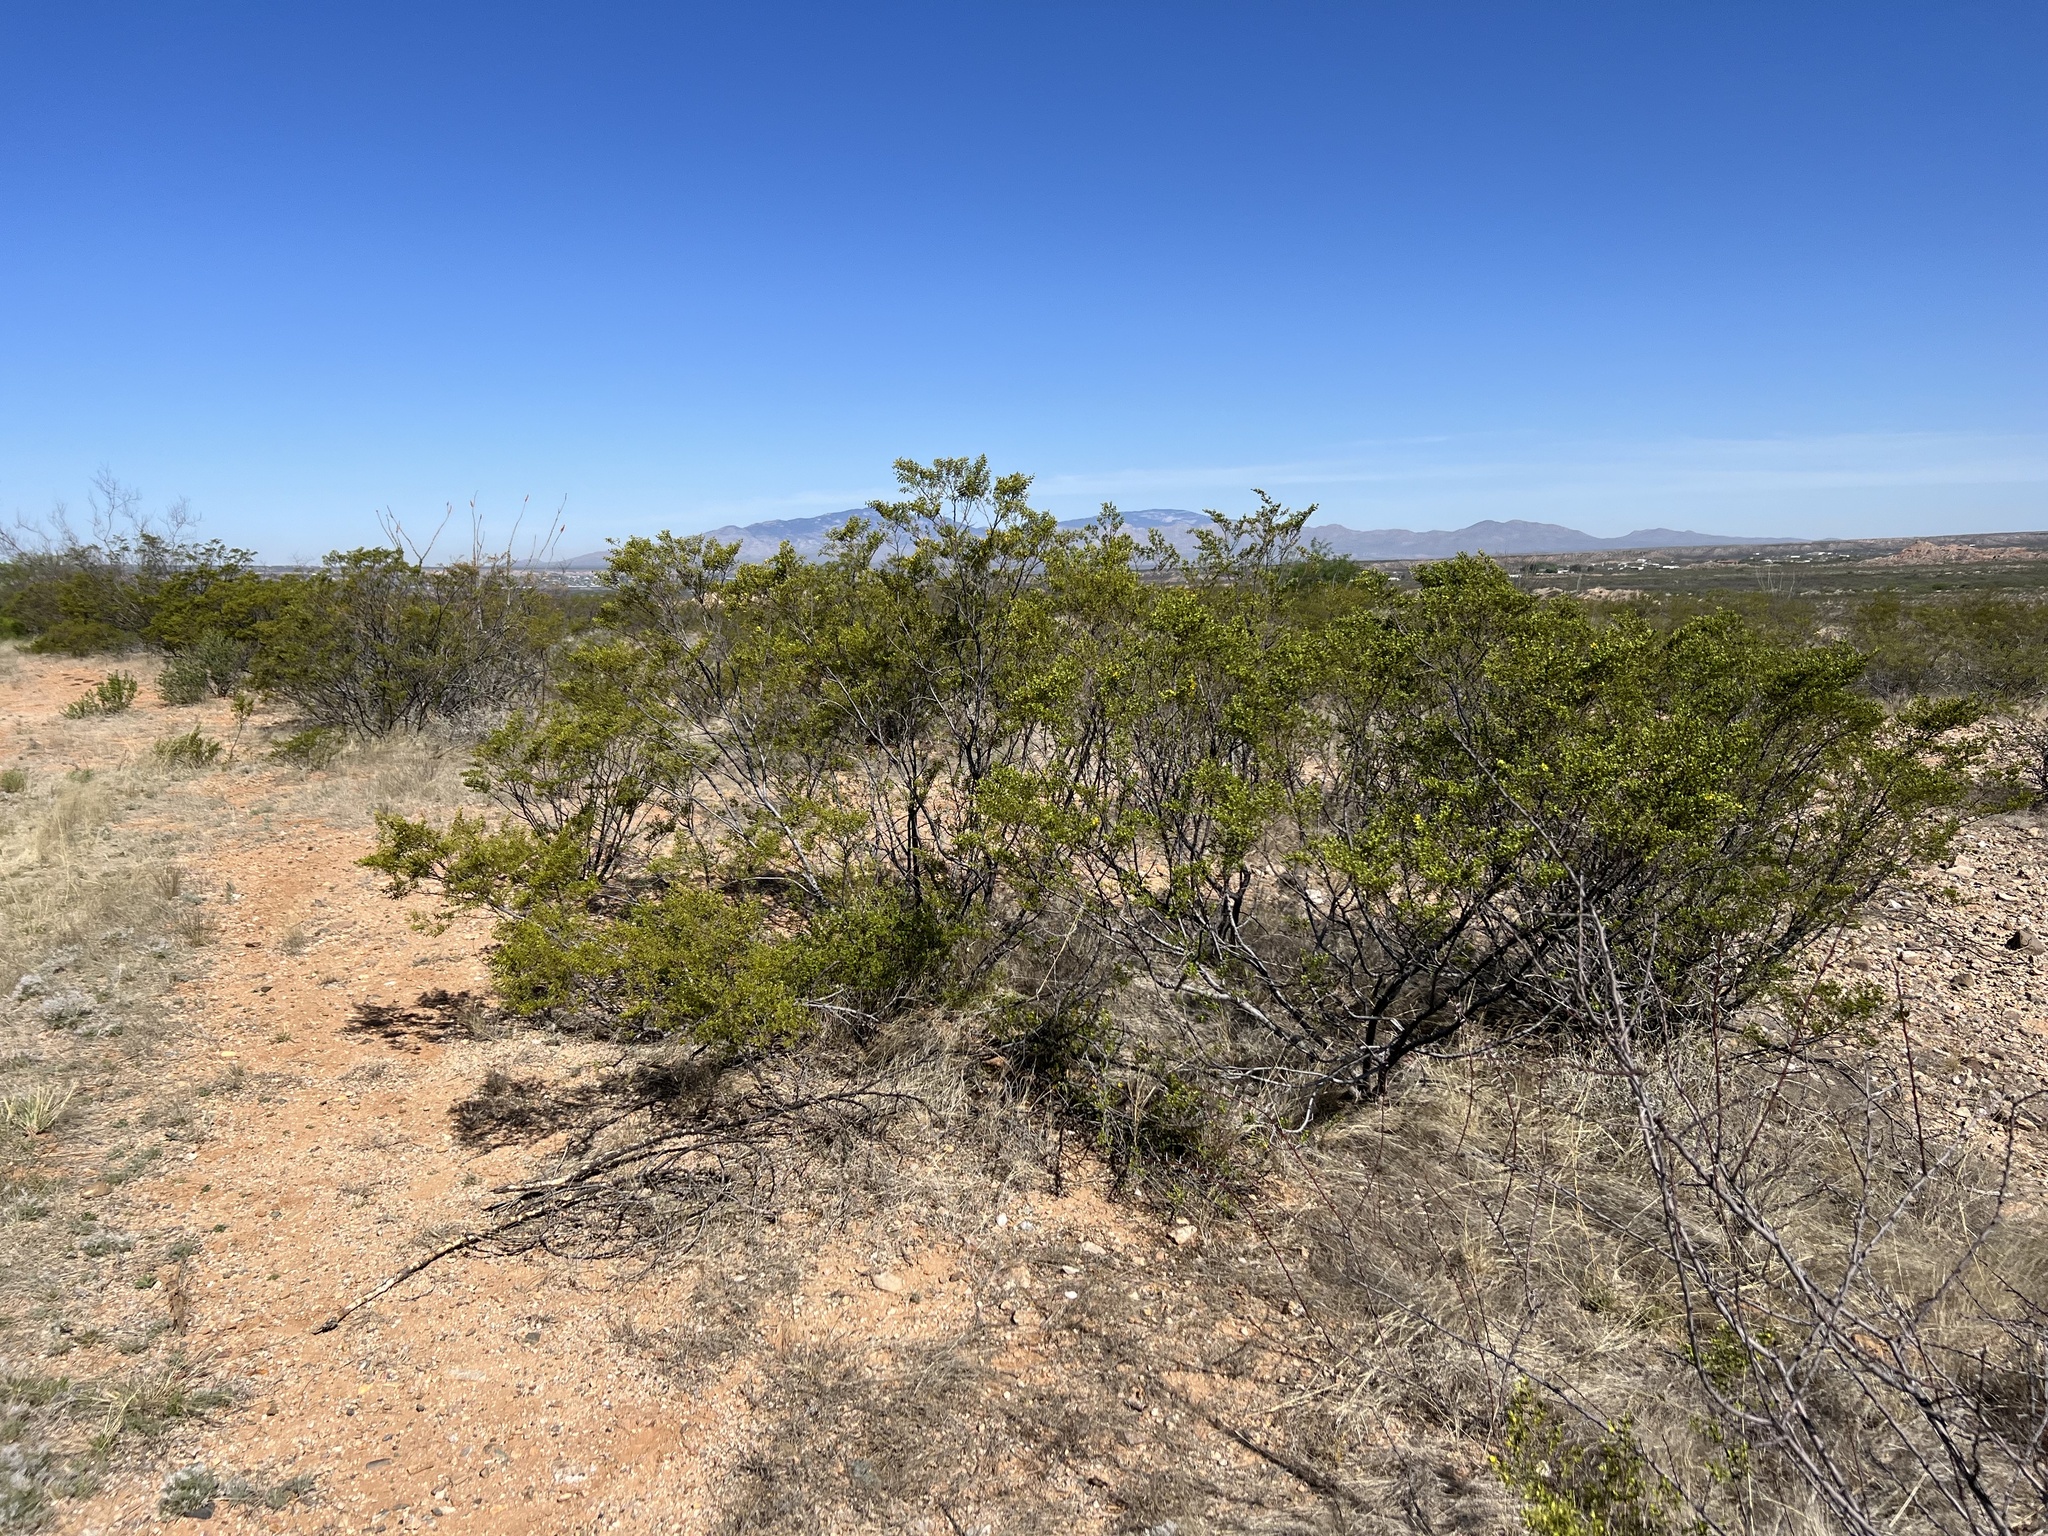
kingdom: Plantae
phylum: Tracheophyta
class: Magnoliopsida
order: Zygophyllales
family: Zygophyllaceae
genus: Larrea
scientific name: Larrea tridentata
